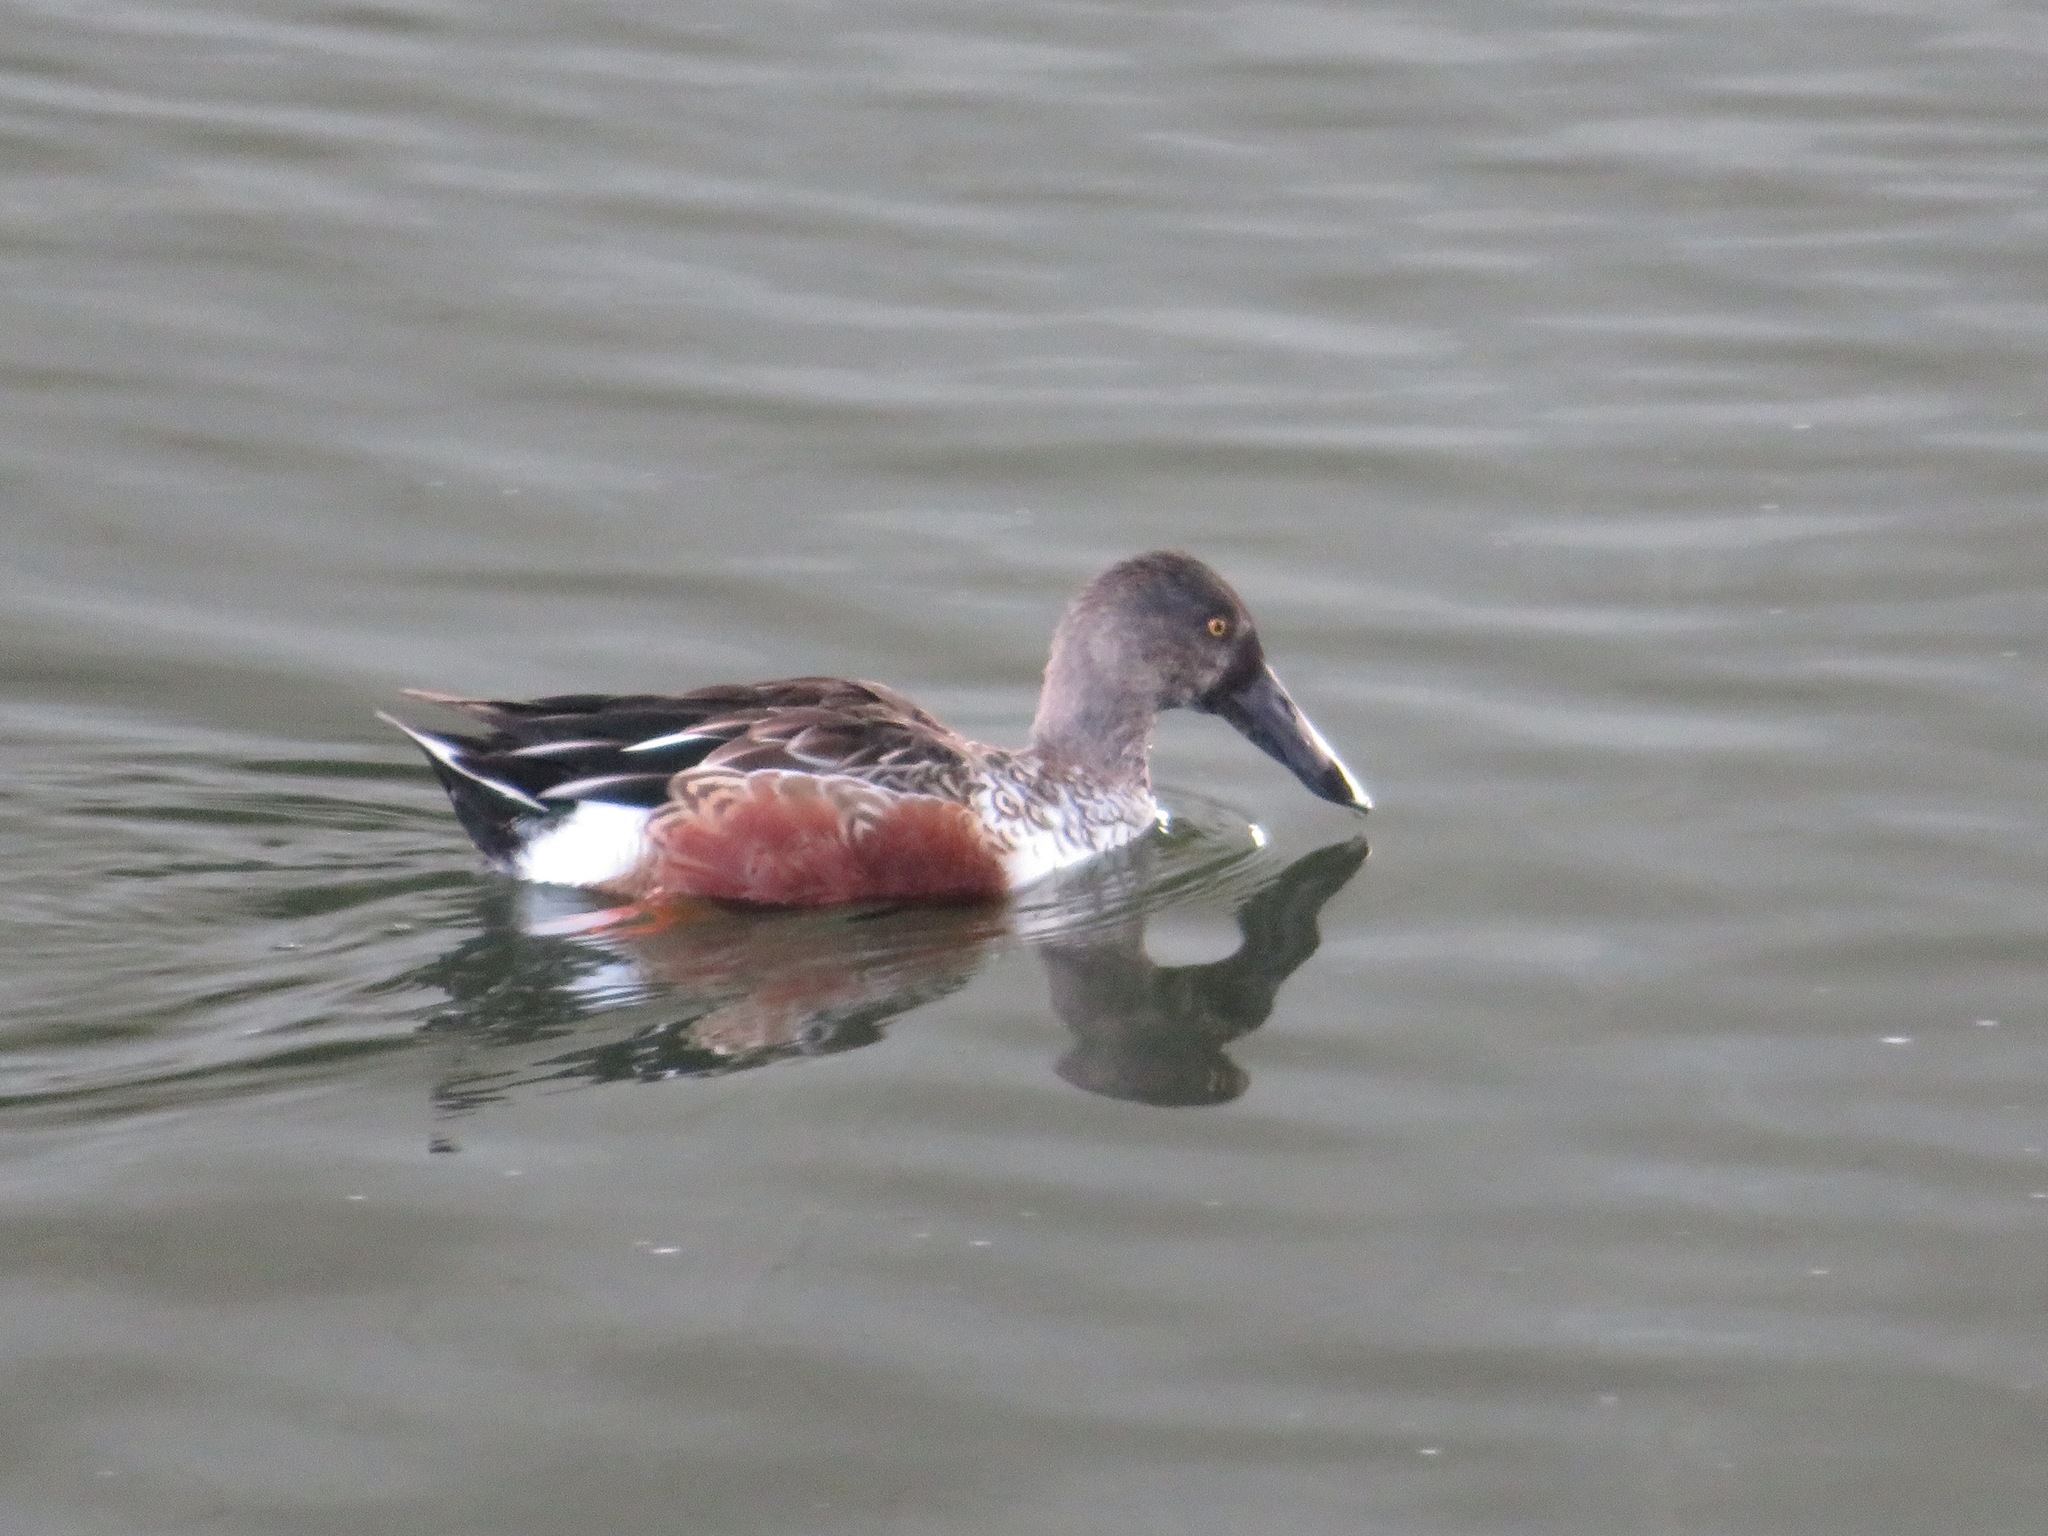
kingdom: Animalia
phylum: Chordata
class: Aves
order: Anseriformes
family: Anatidae
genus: Spatula
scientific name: Spatula clypeata
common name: Northern shoveler
